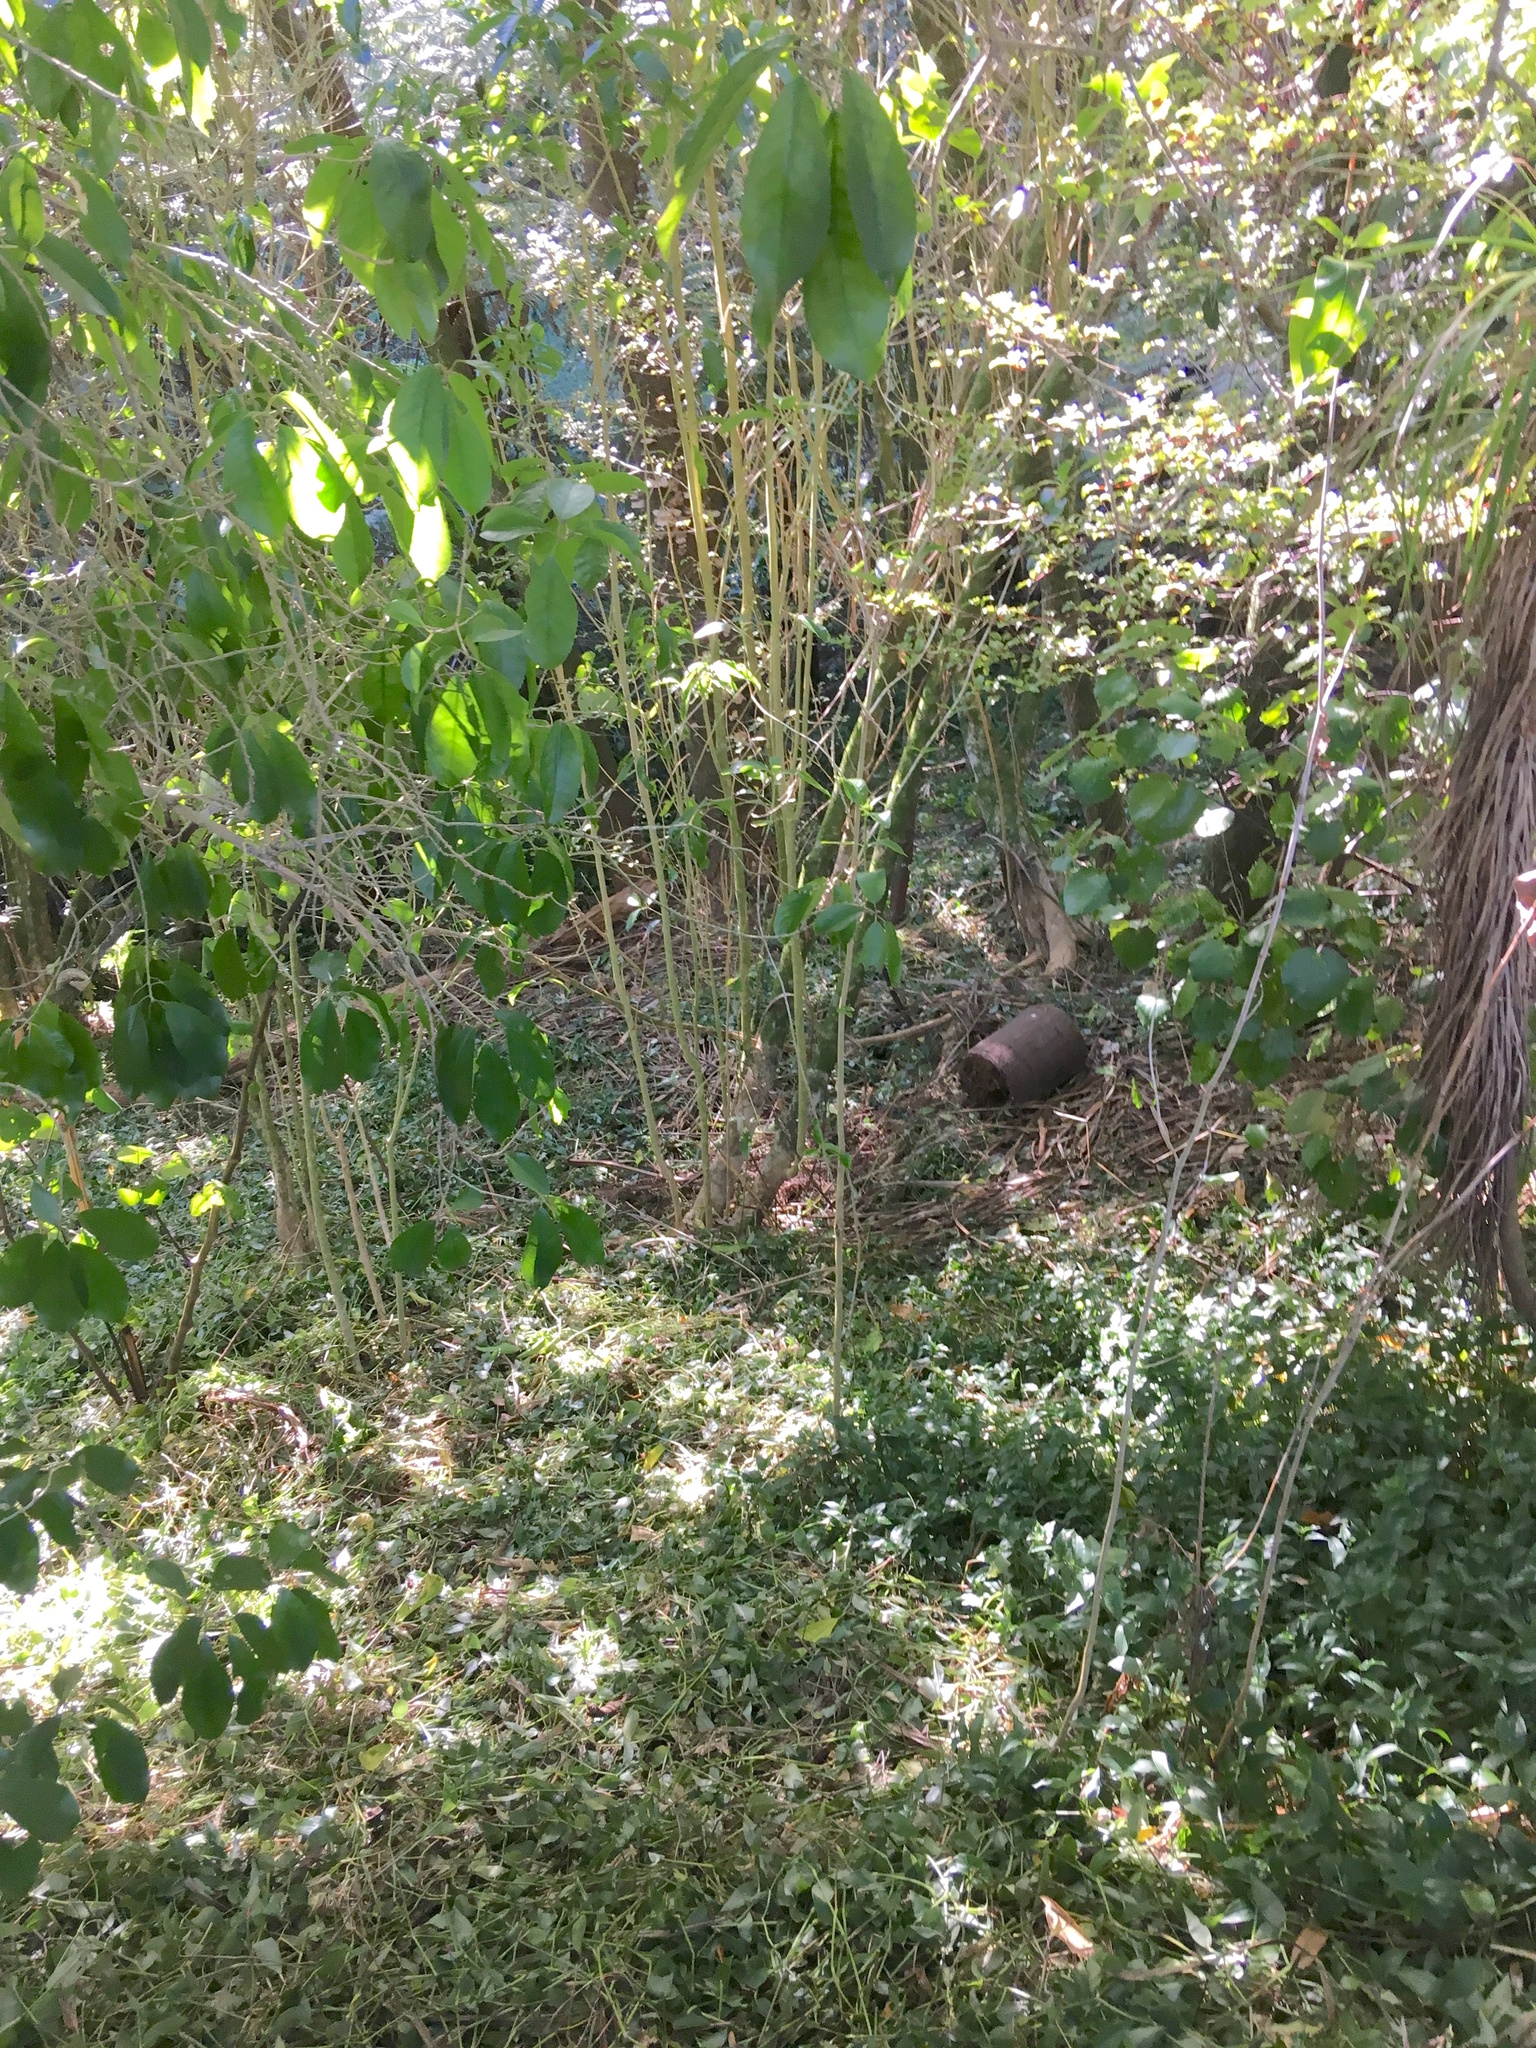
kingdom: Plantae
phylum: Tracheophyta
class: Liliopsida
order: Commelinales
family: Commelinaceae
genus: Tradescantia
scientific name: Tradescantia fluminensis
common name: Wandering-jew
